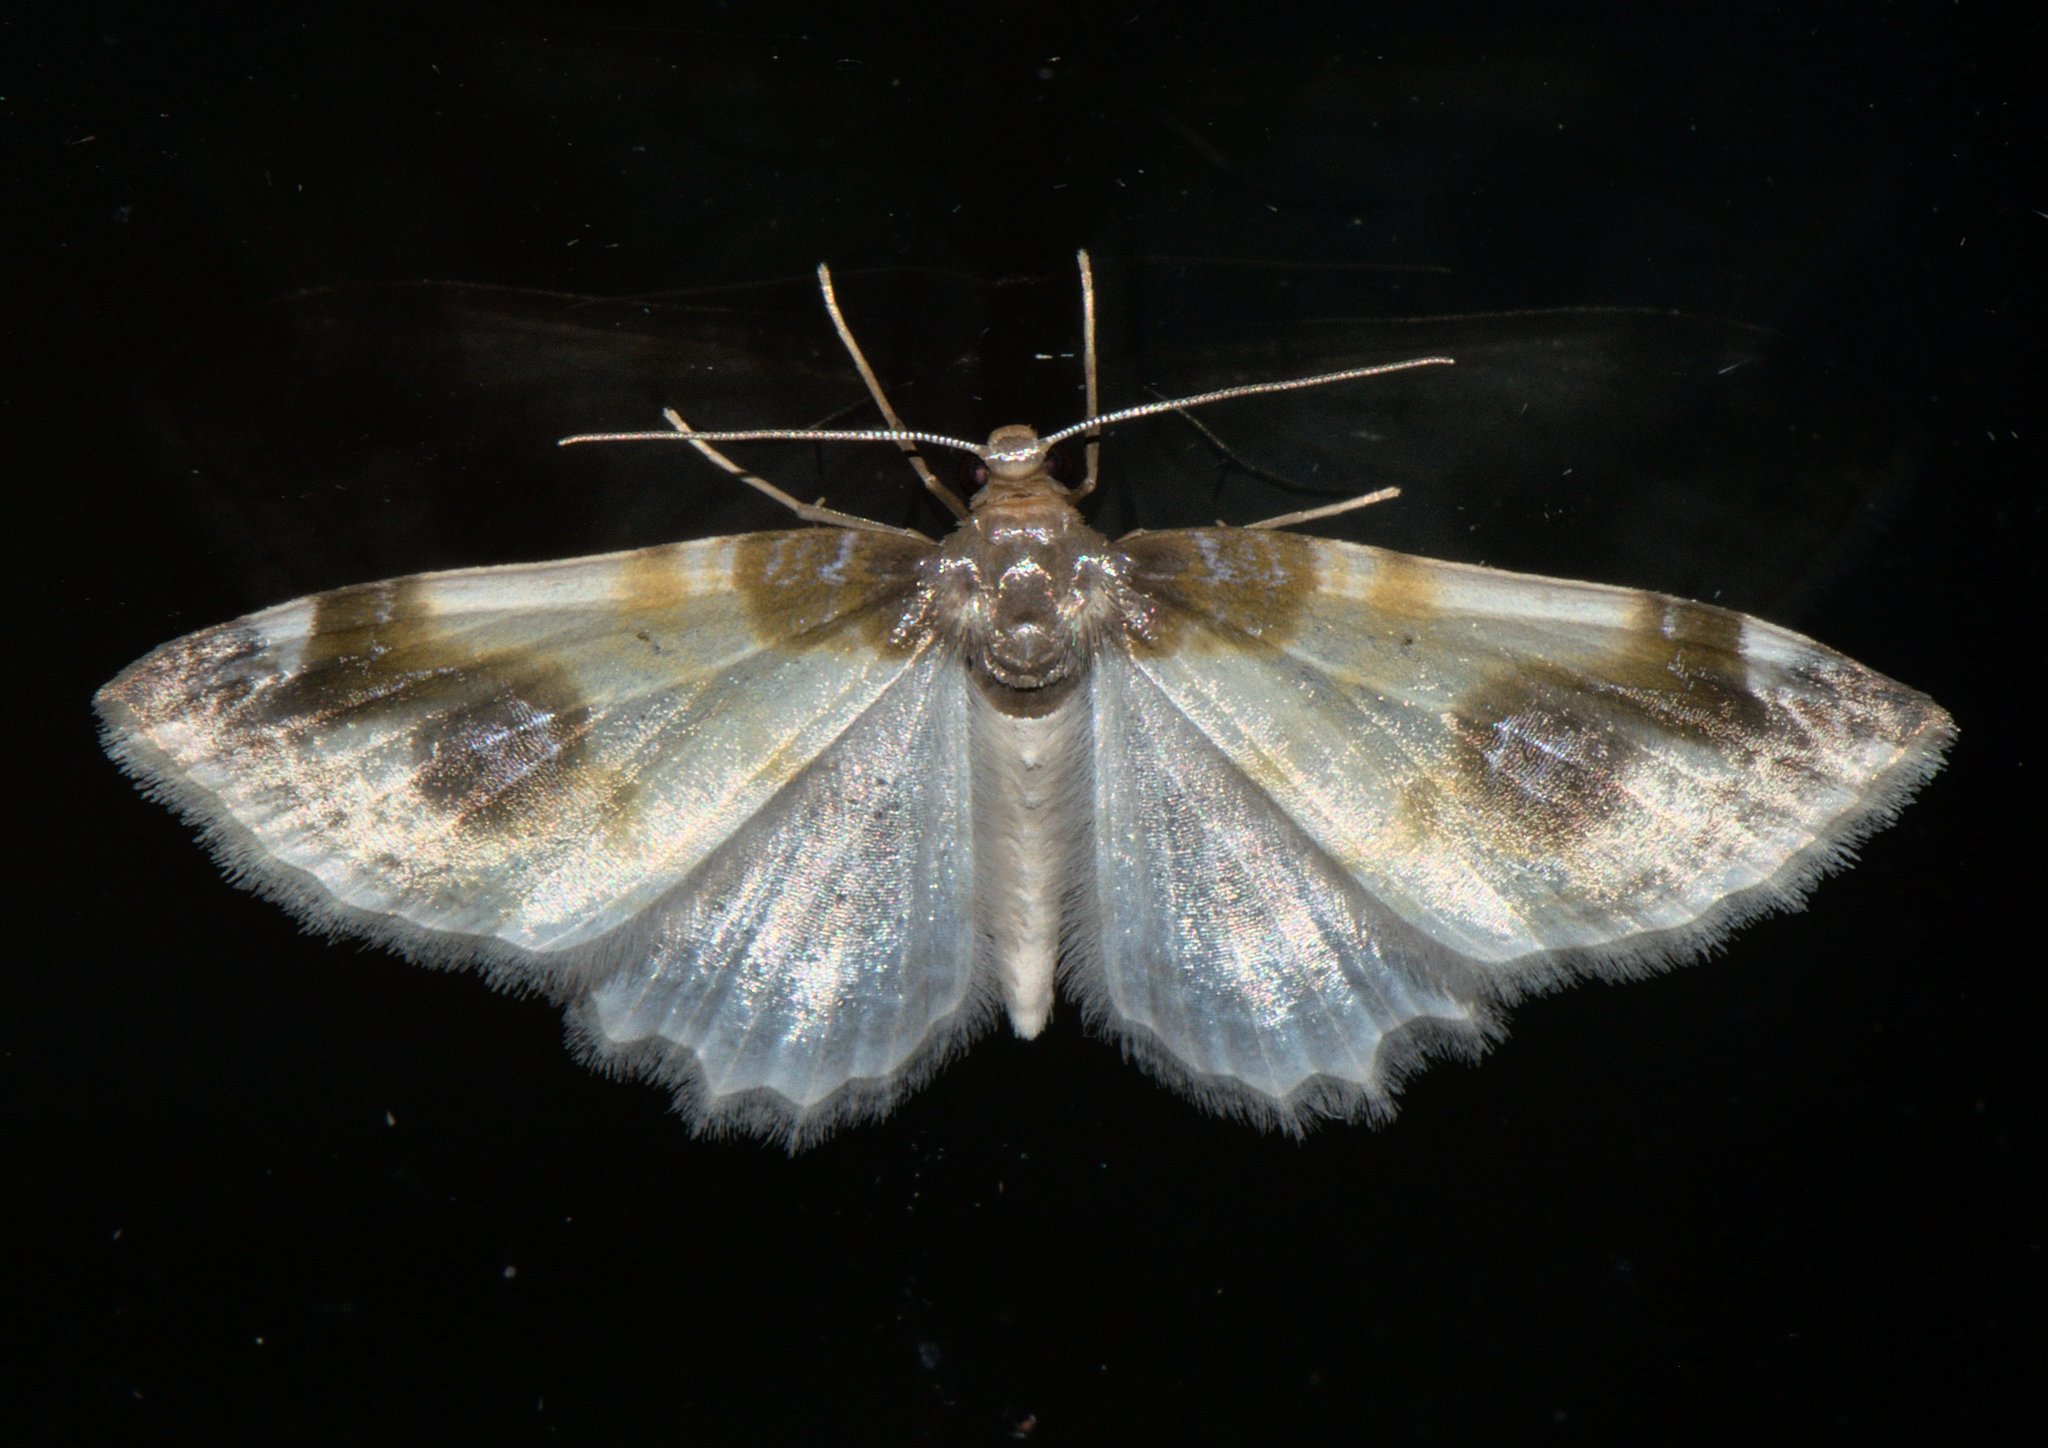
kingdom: Animalia
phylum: Arthropoda
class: Insecta
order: Lepidoptera
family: Geometridae
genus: Agnibesa
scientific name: Agnibesa pictaria
